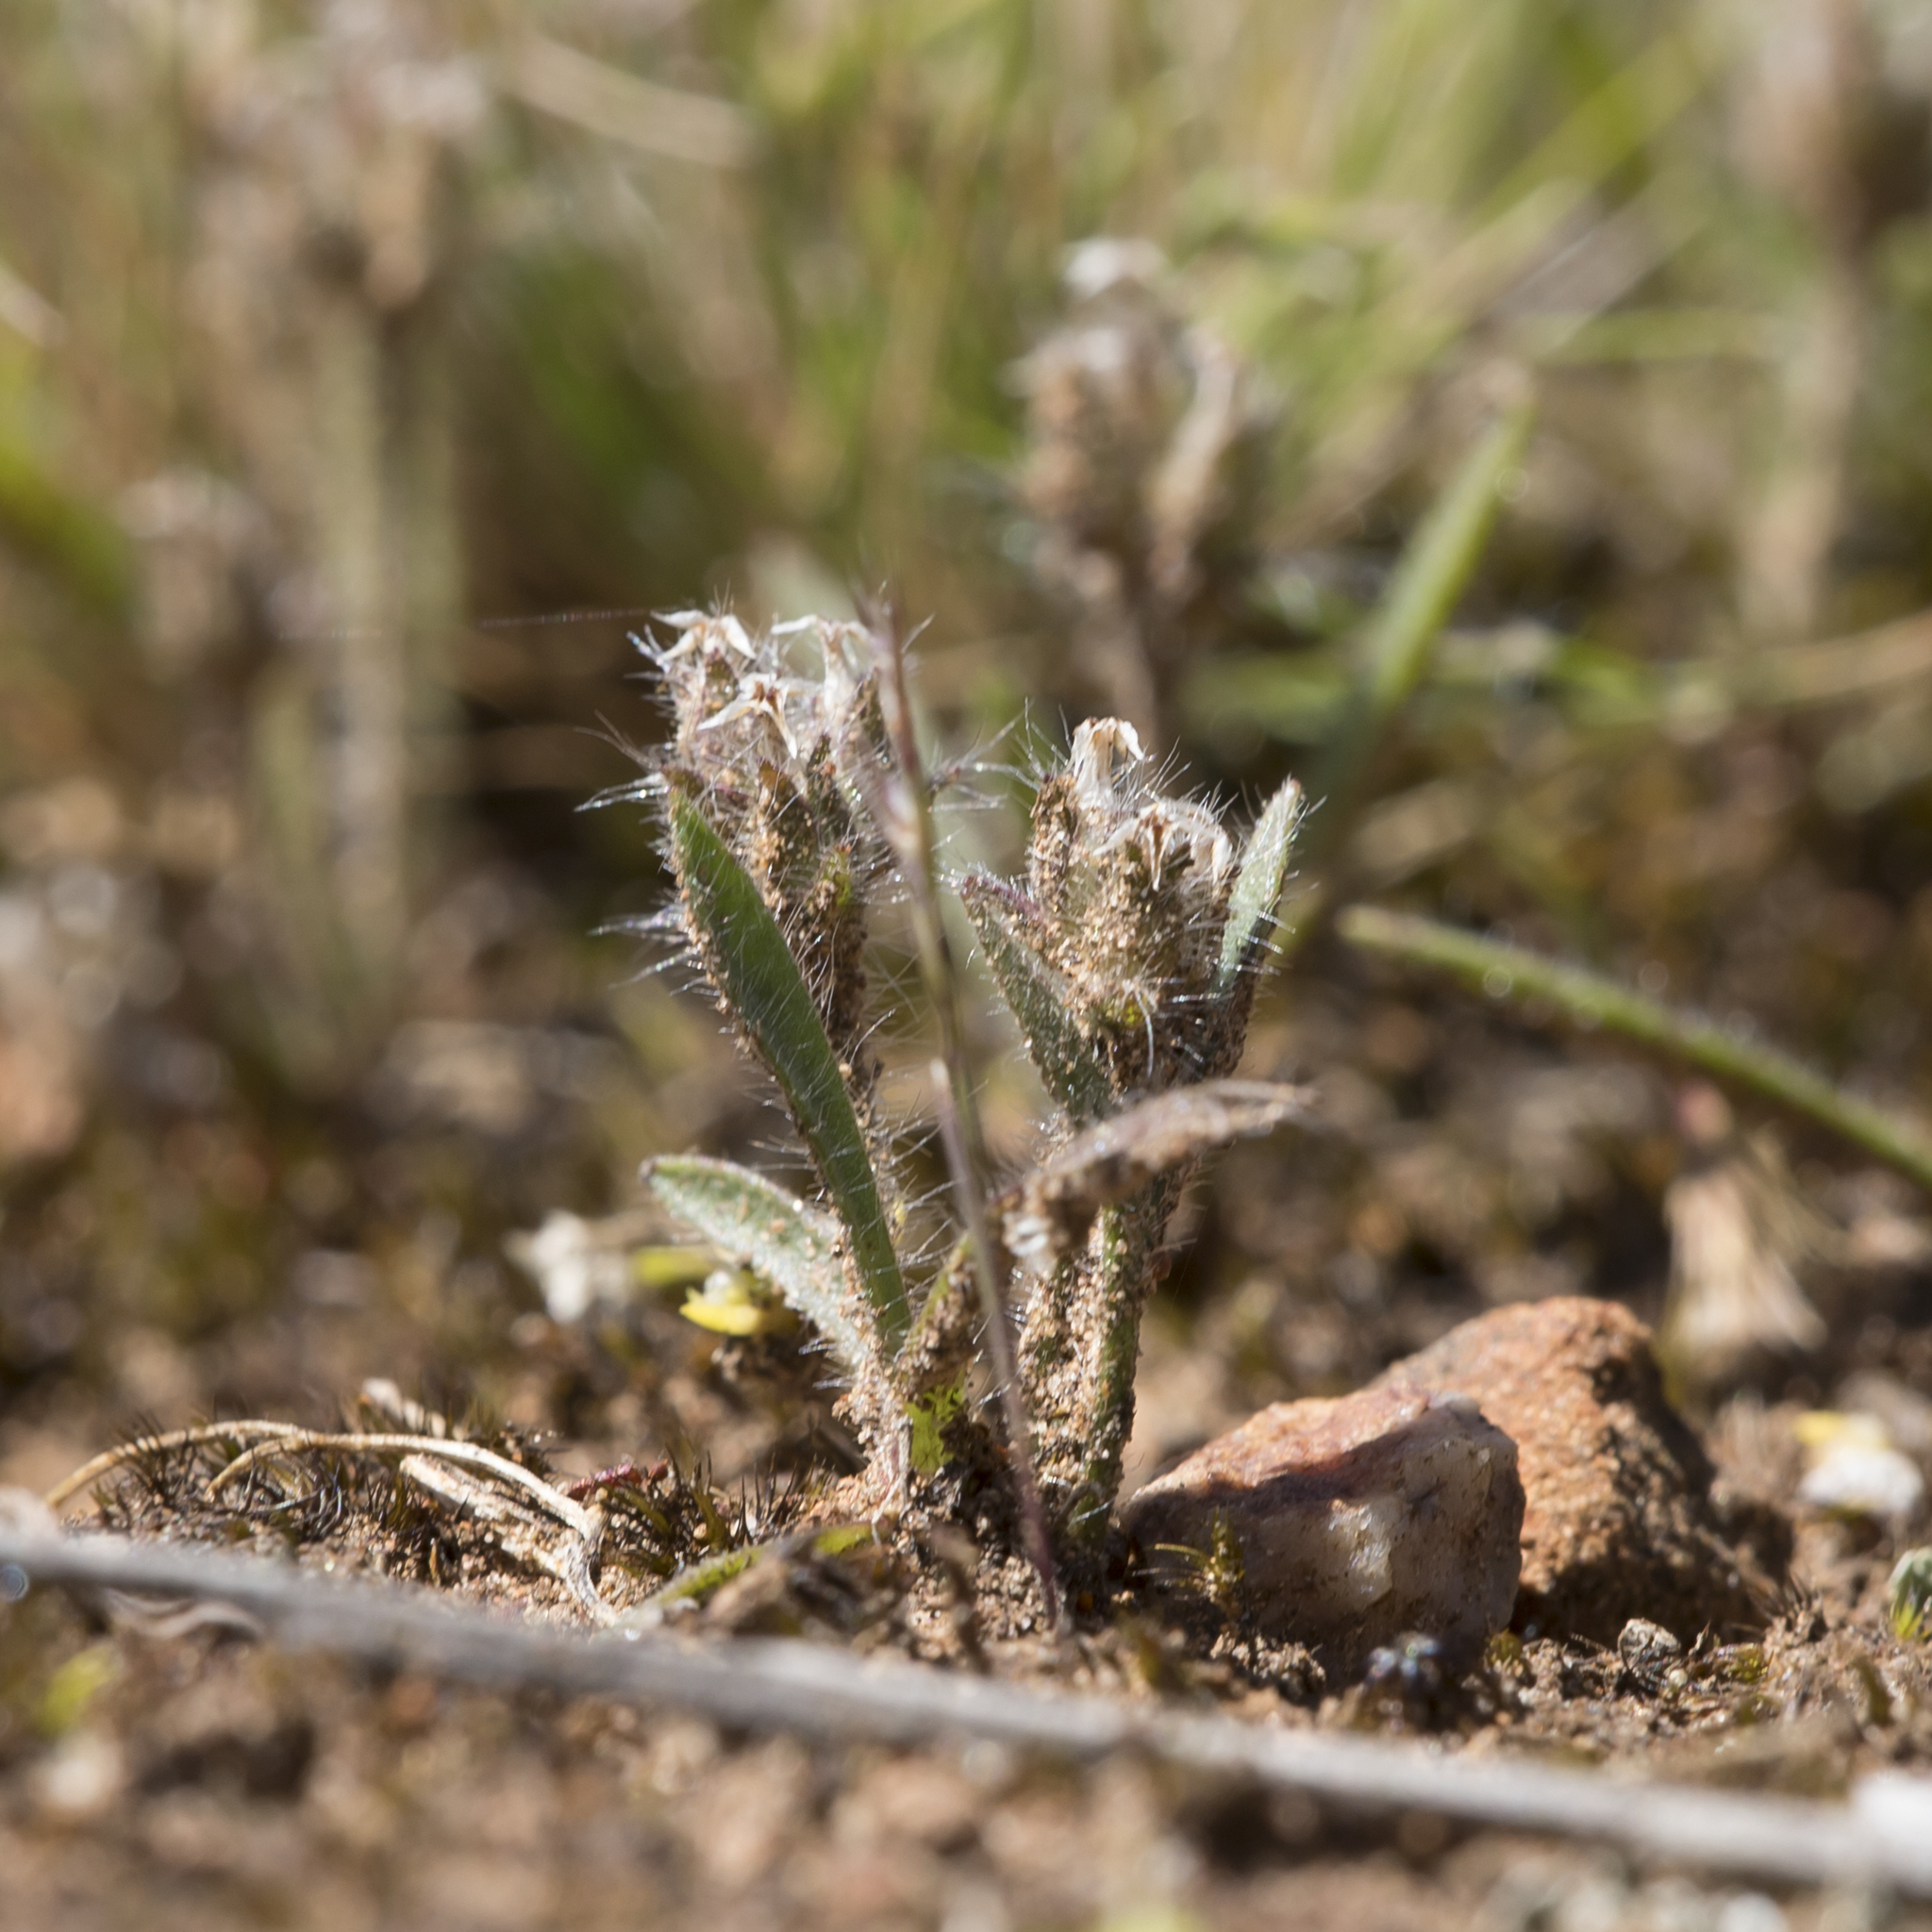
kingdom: Plantae
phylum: Tracheophyta
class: Magnoliopsida
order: Lamiales
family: Plantaginaceae
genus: Plantago
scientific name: Plantago bellardii
